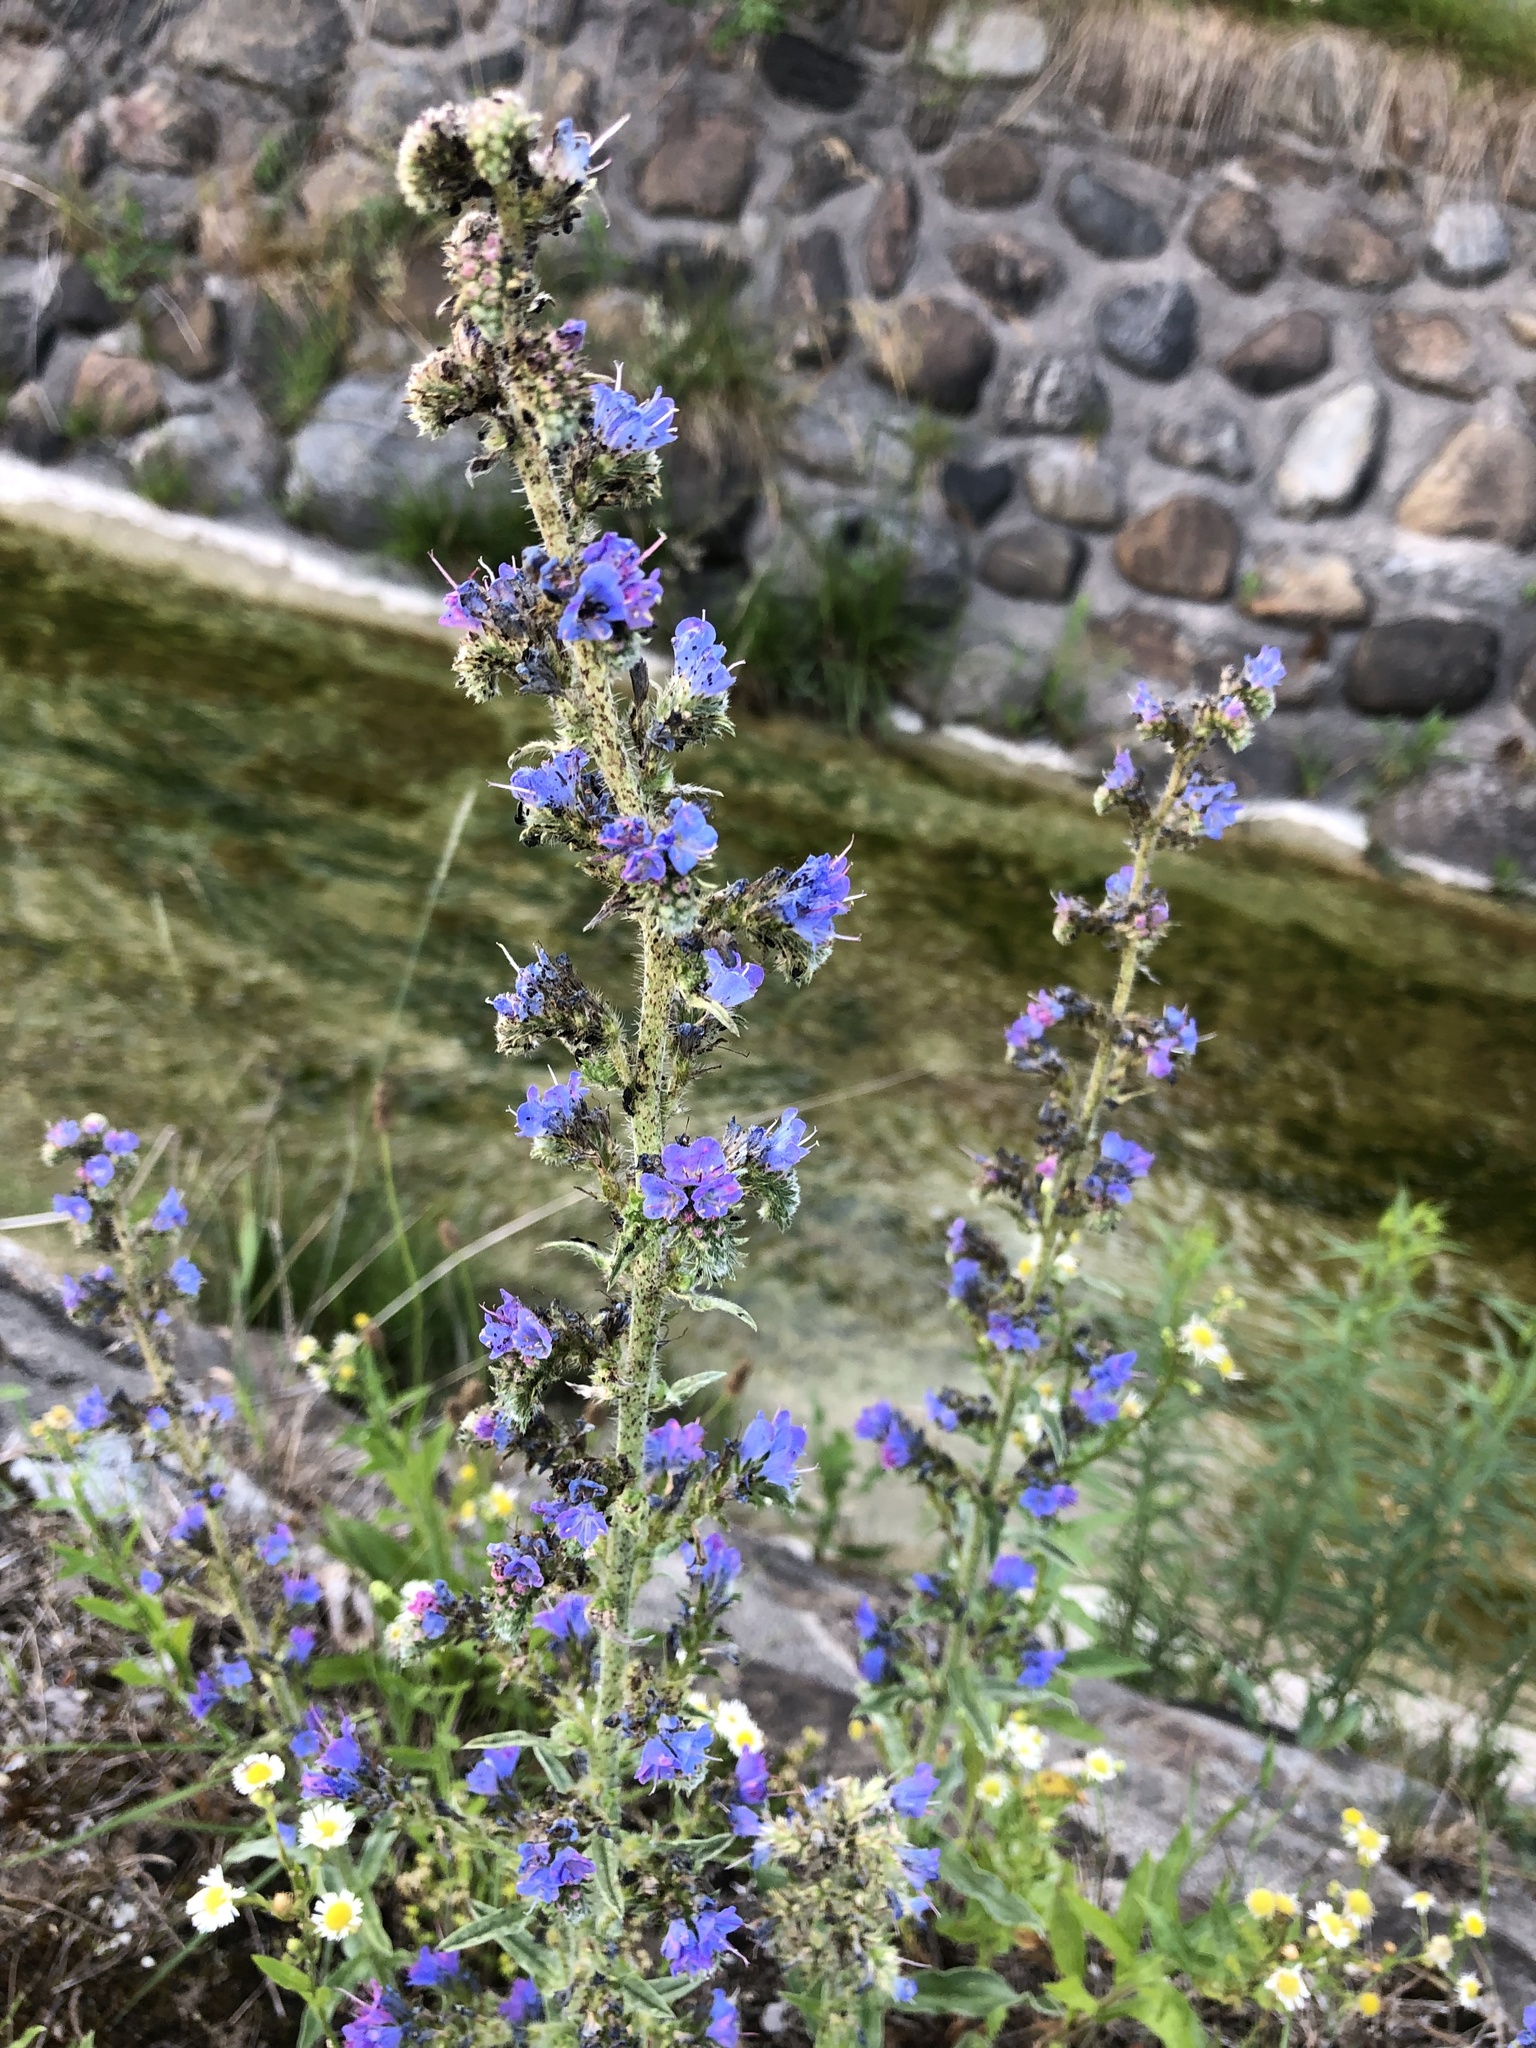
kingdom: Plantae
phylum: Tracheophyta
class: Magnoliopsida
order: Boraginales
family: Boraginaceae
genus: Echium
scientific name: Echium vulgare
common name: Common viper's bugloss
